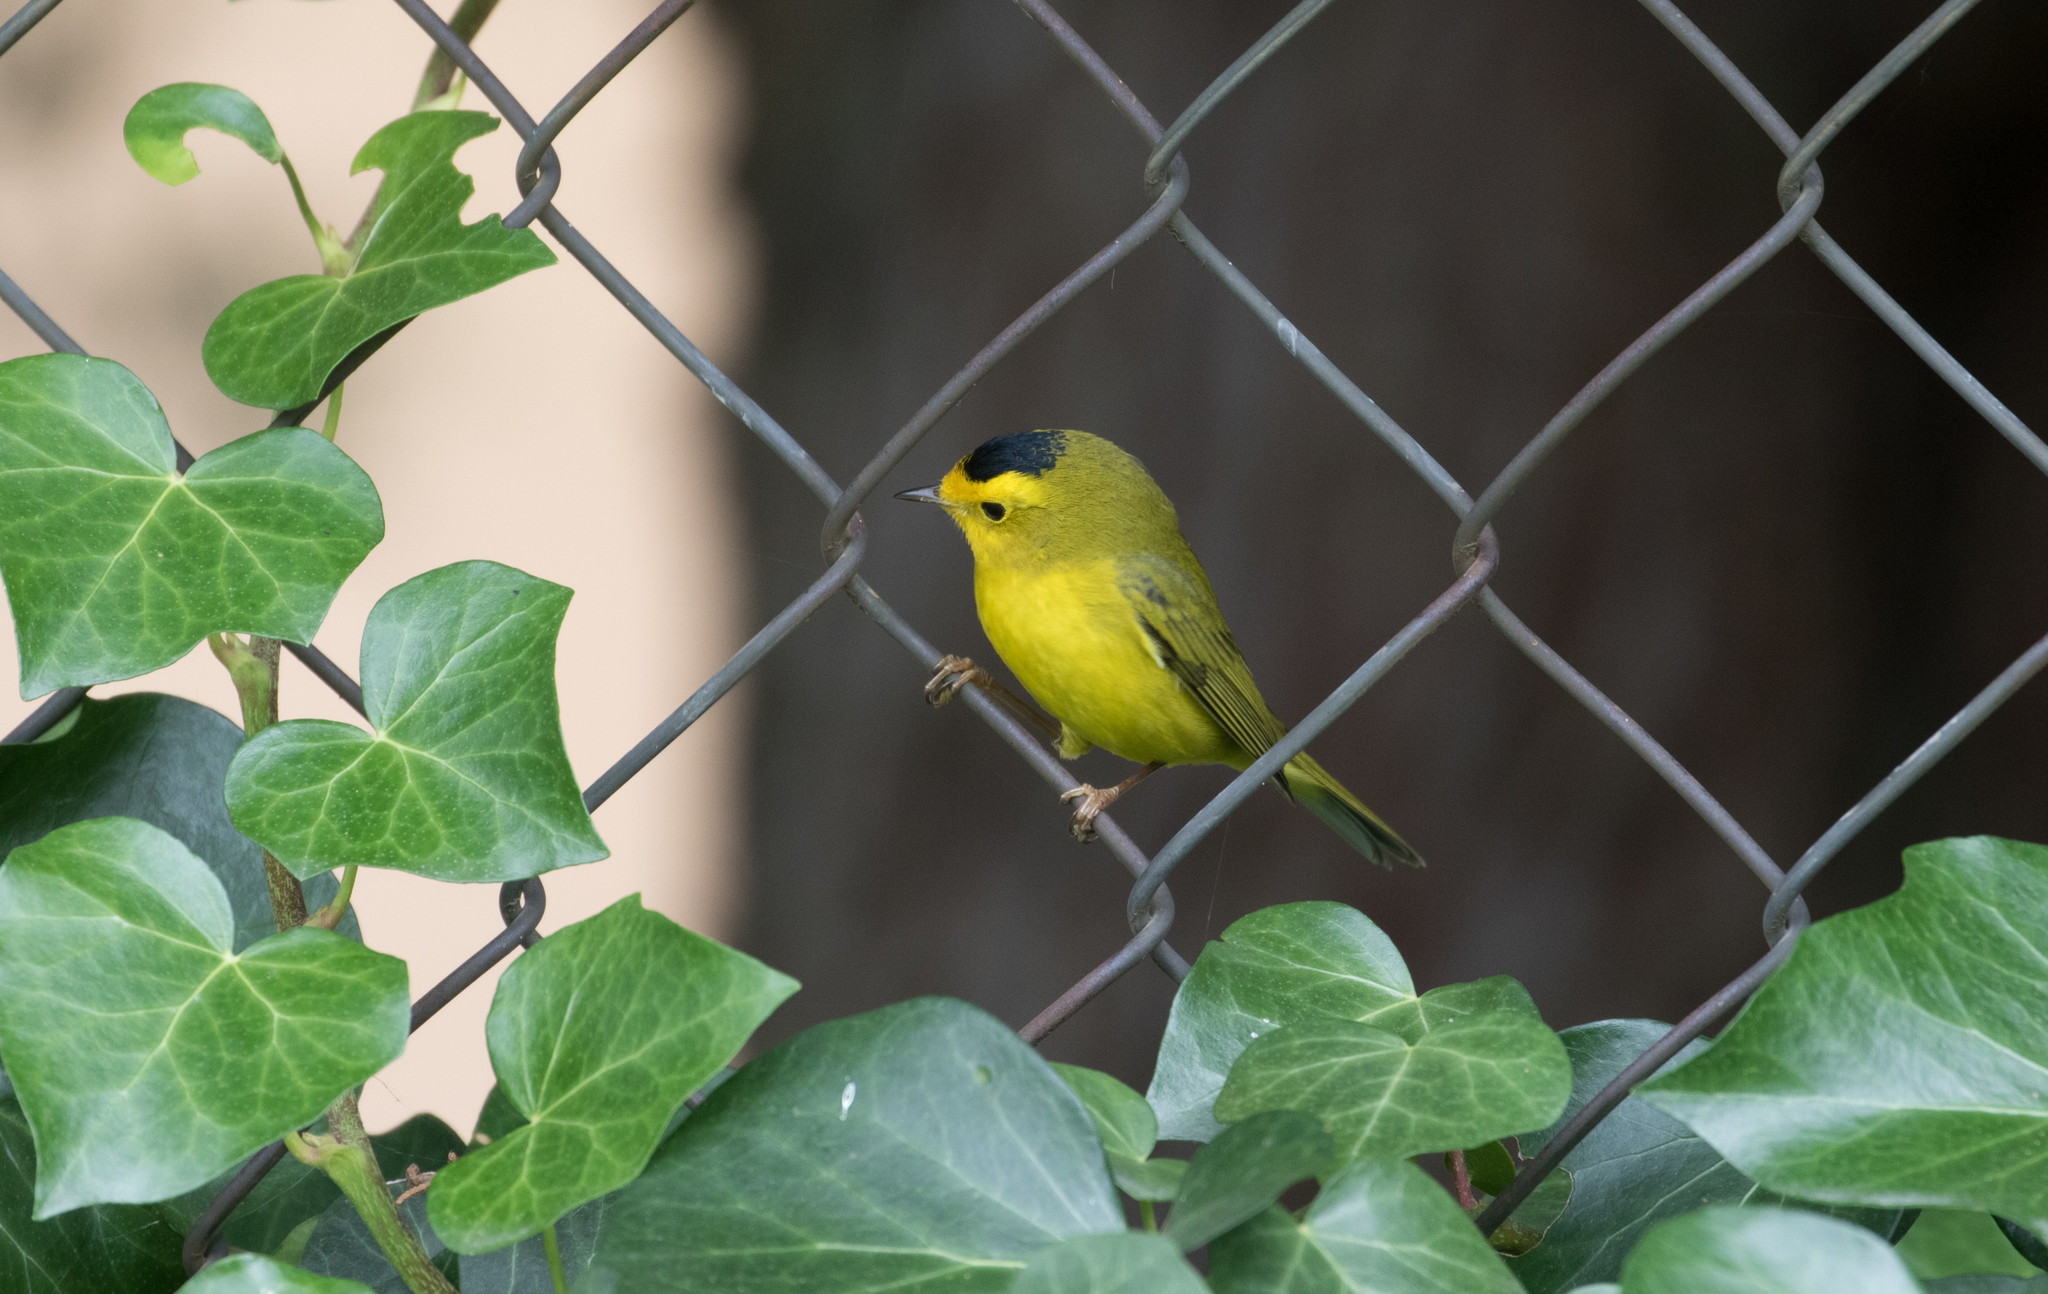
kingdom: Animalia
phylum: Chordata
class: Aves
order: Passeriformes
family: Parulidae
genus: Cardellina
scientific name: Cardellina pusilla
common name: Wilson's warbler
